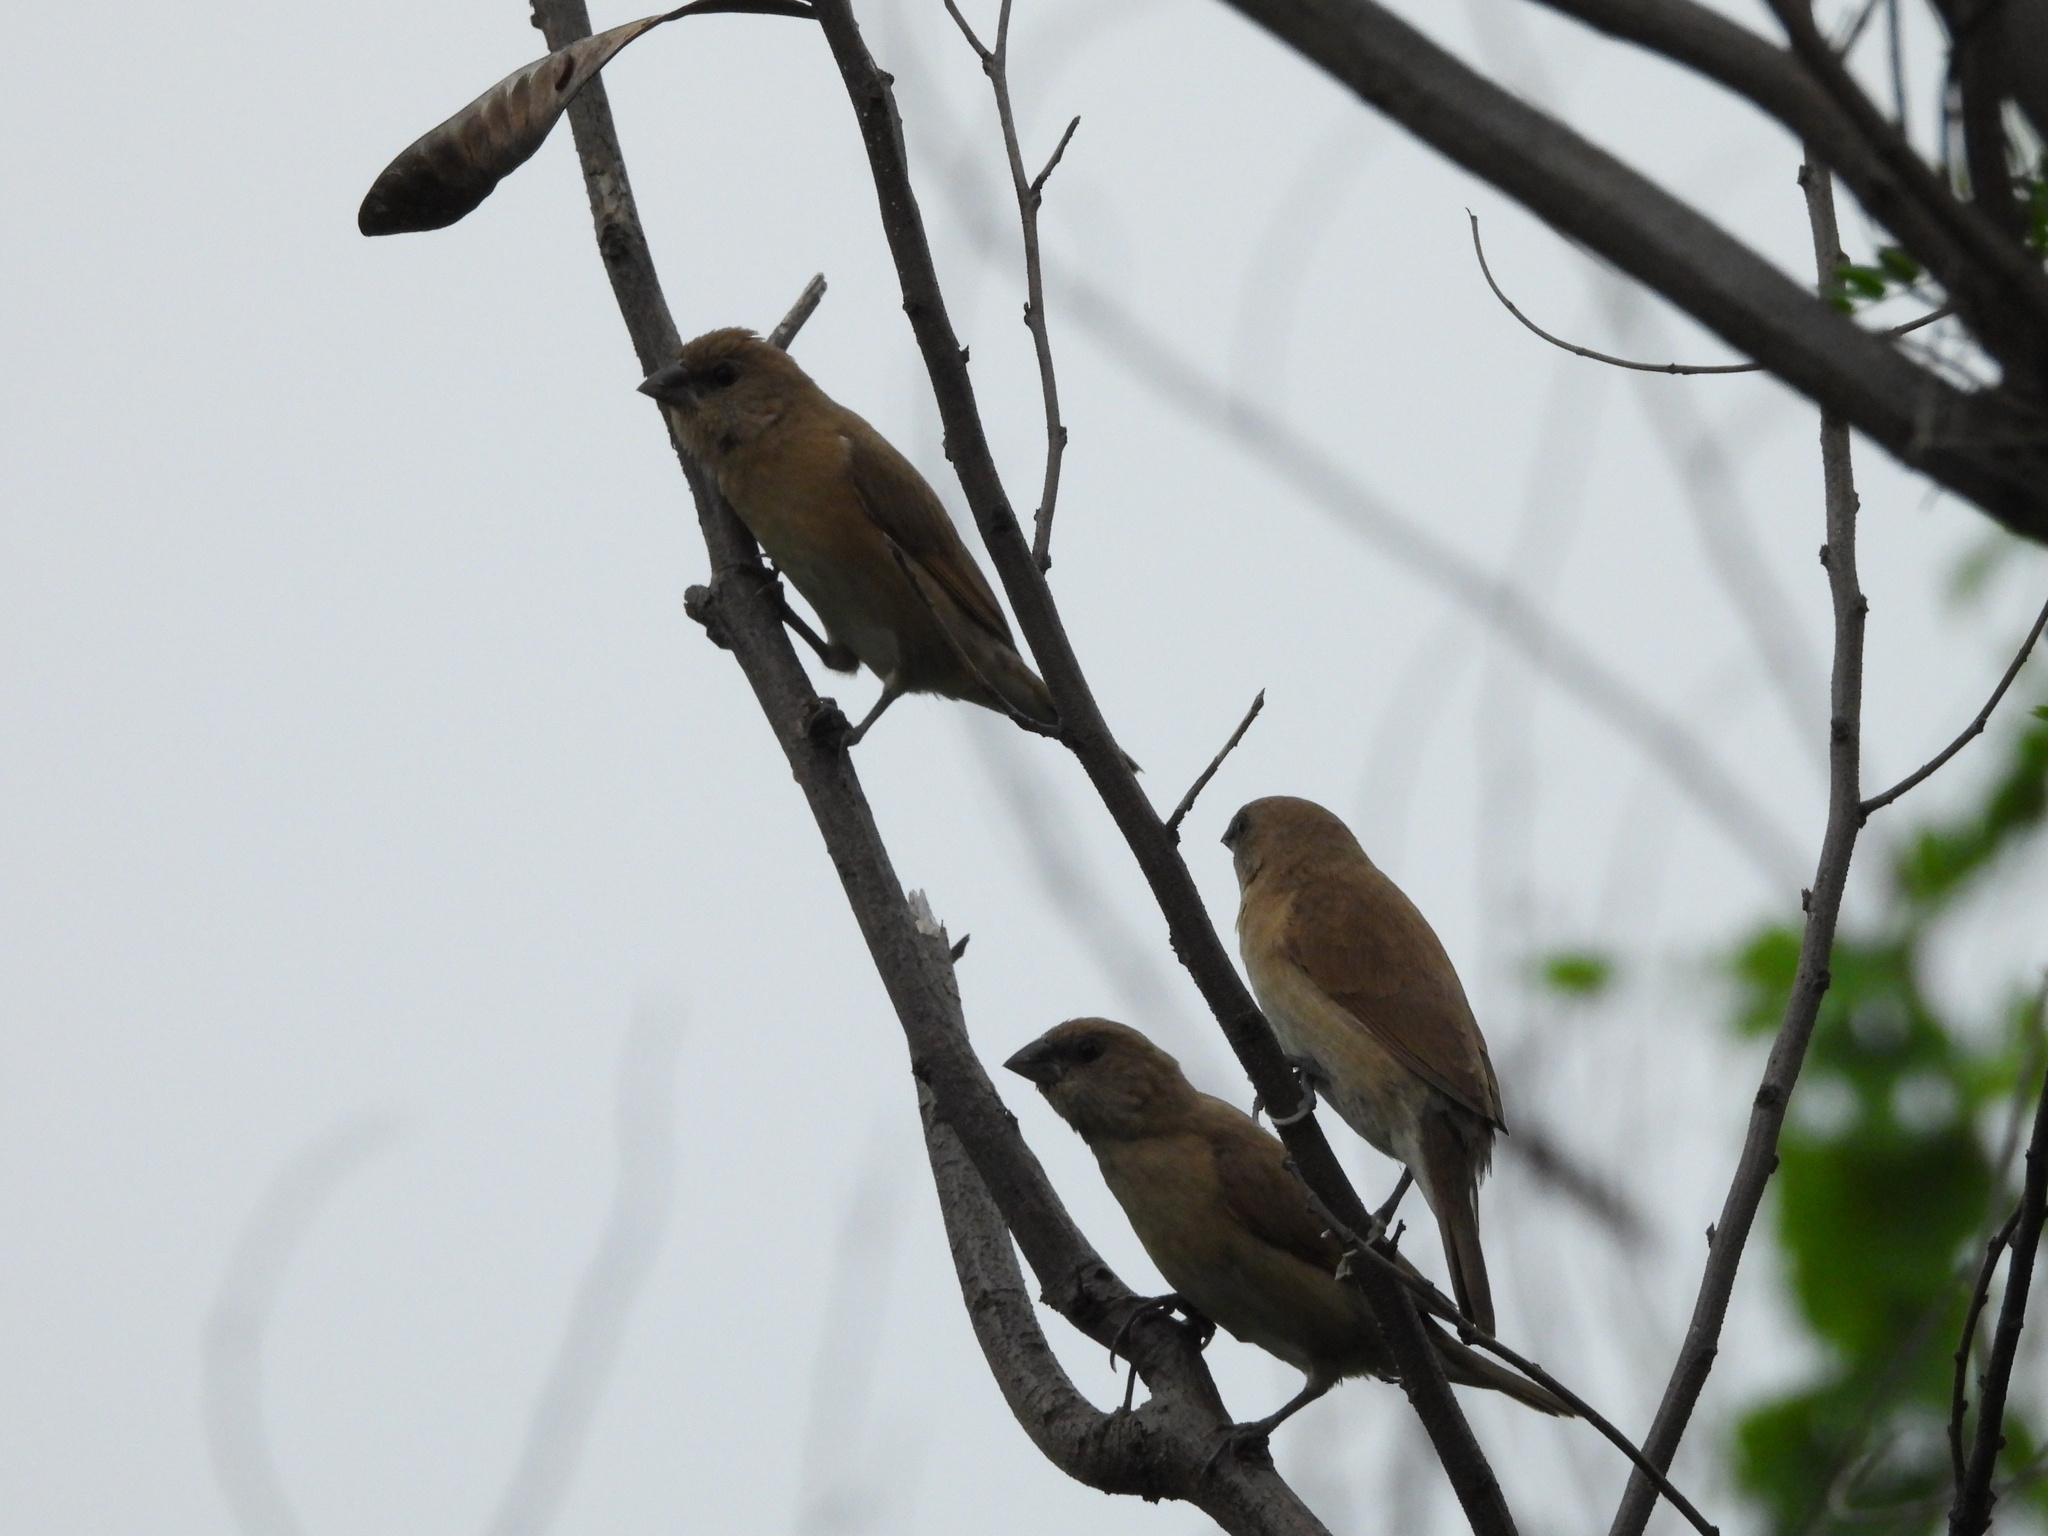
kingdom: Animalia
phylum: Chordata
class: Aves
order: Passeriformes
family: Estrildidae
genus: Lonchura
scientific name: Lonchura punctulata
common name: Scaly-breasted munia
